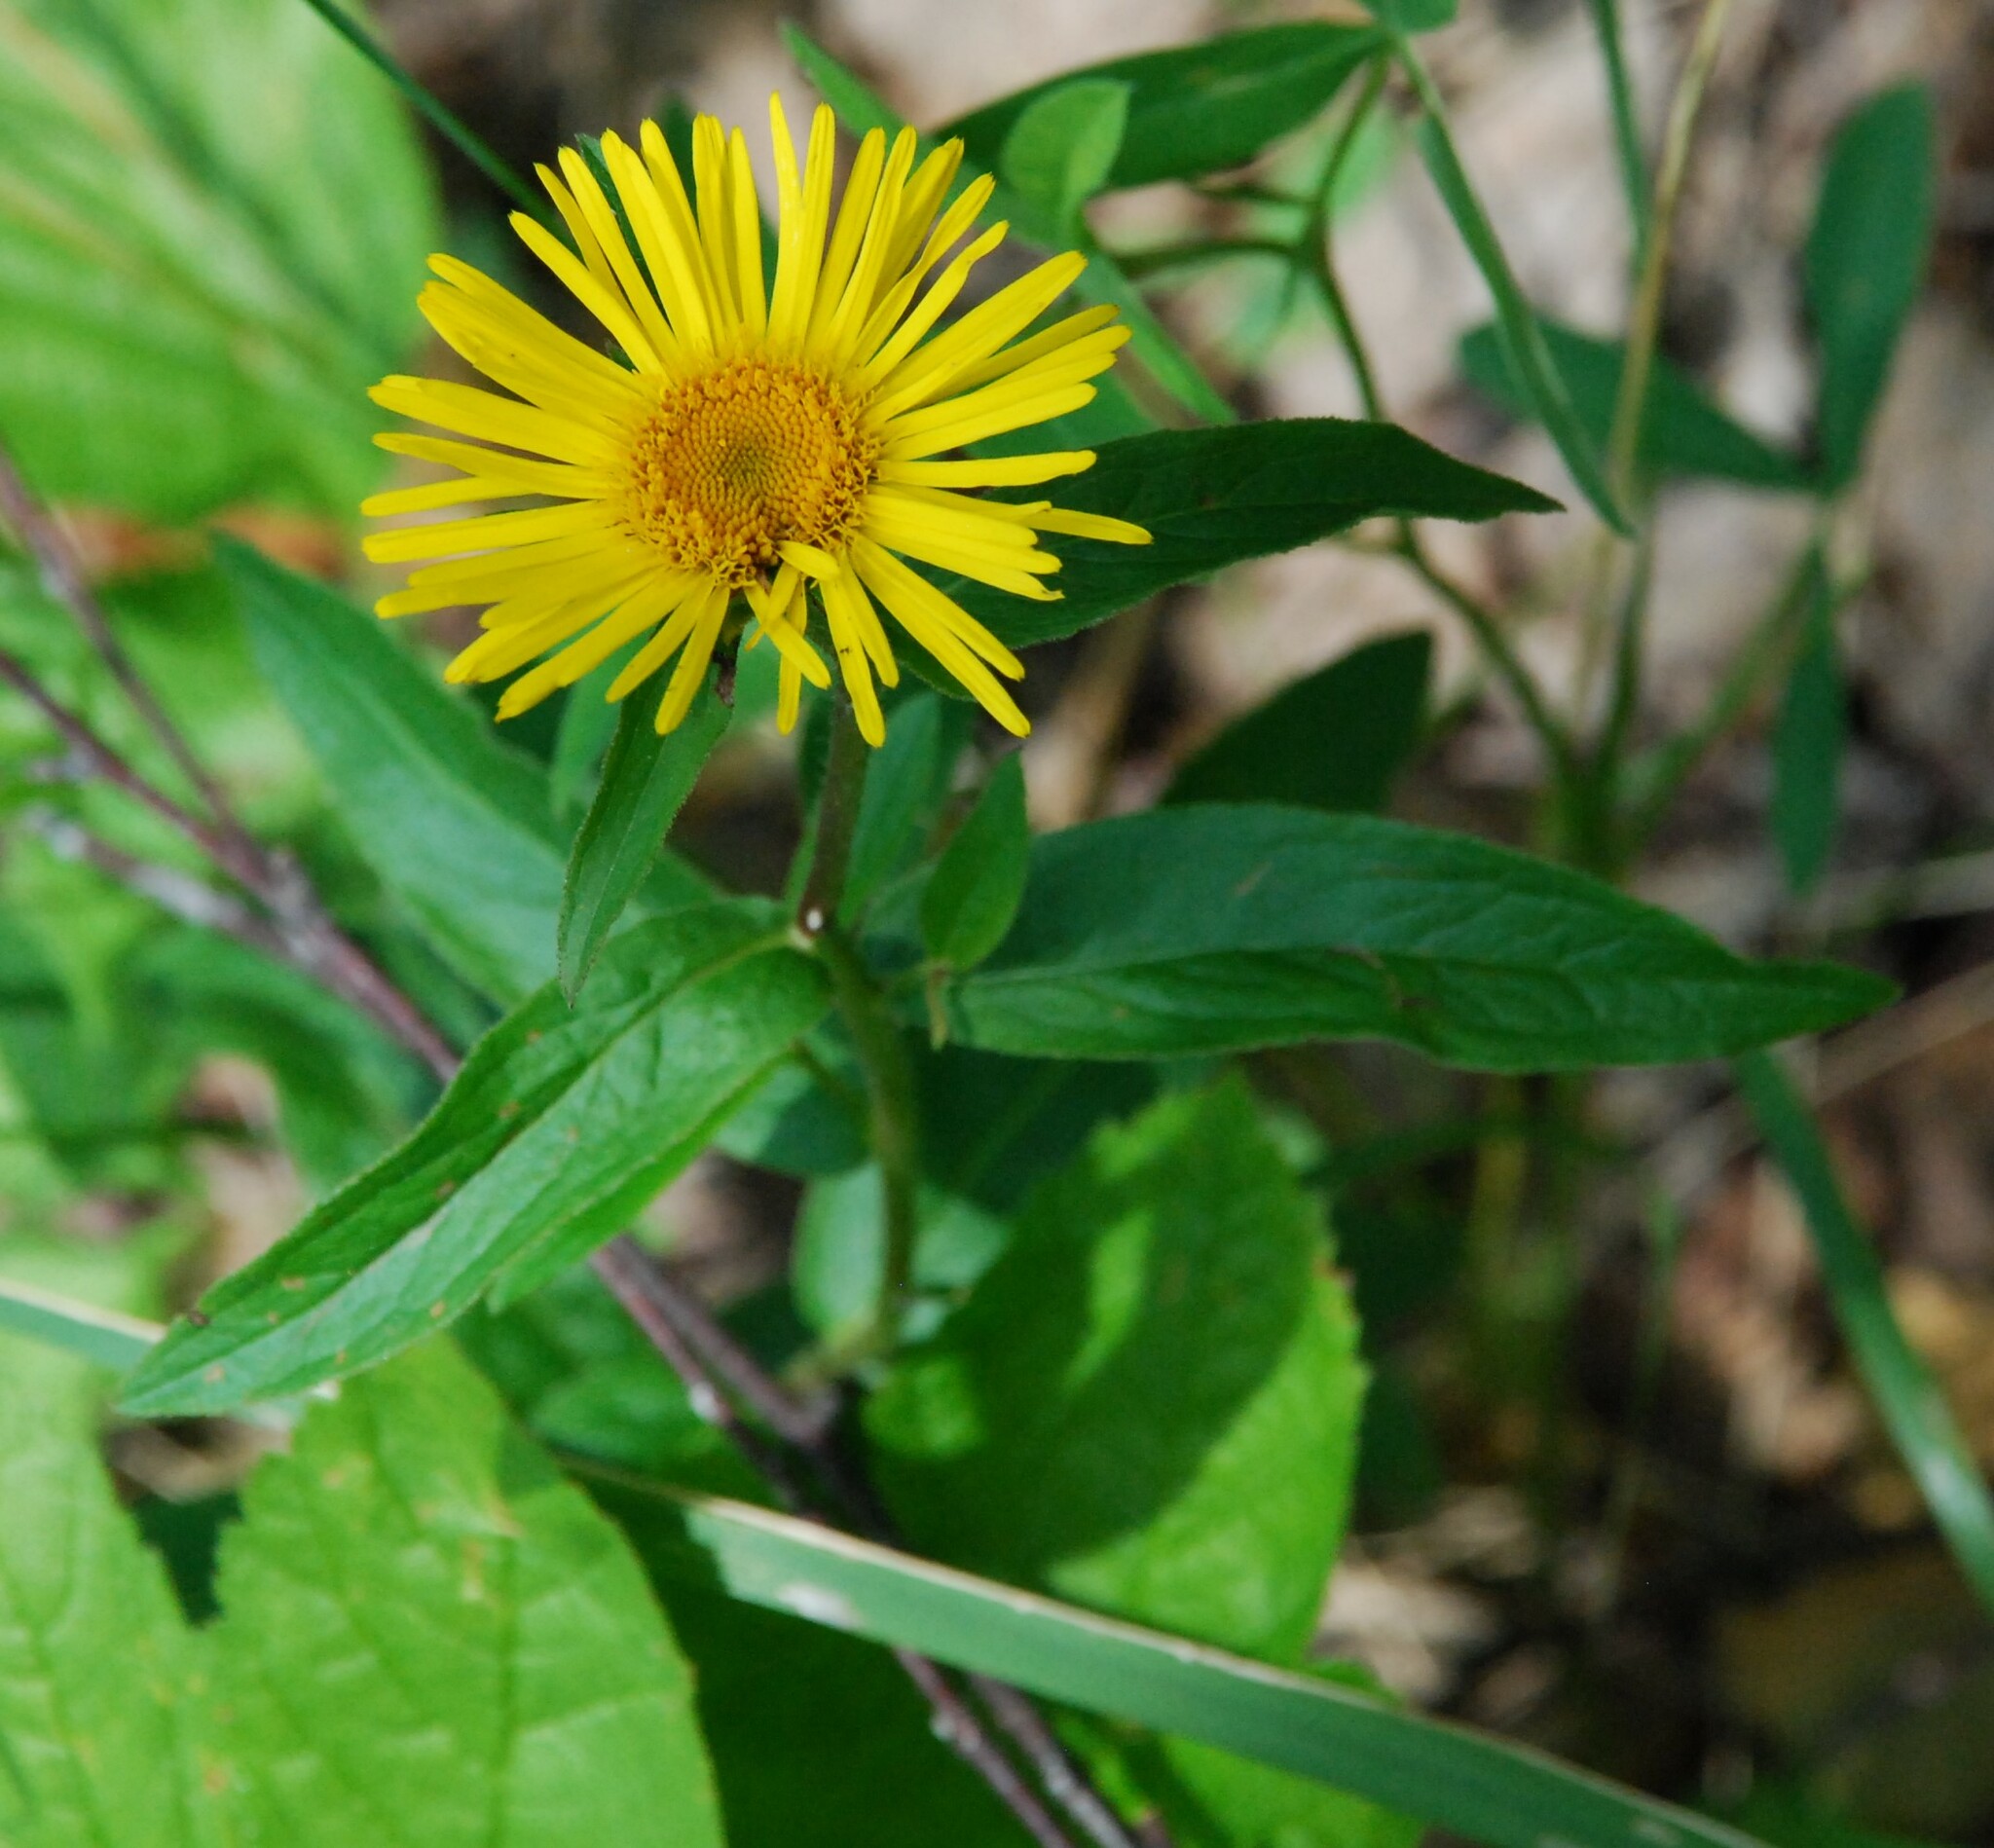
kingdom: Plantae
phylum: Tracheophyta
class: Magnoliopsida
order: Asterales
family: Asteraceae
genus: Pentanema
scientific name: Pentanema salicinum
